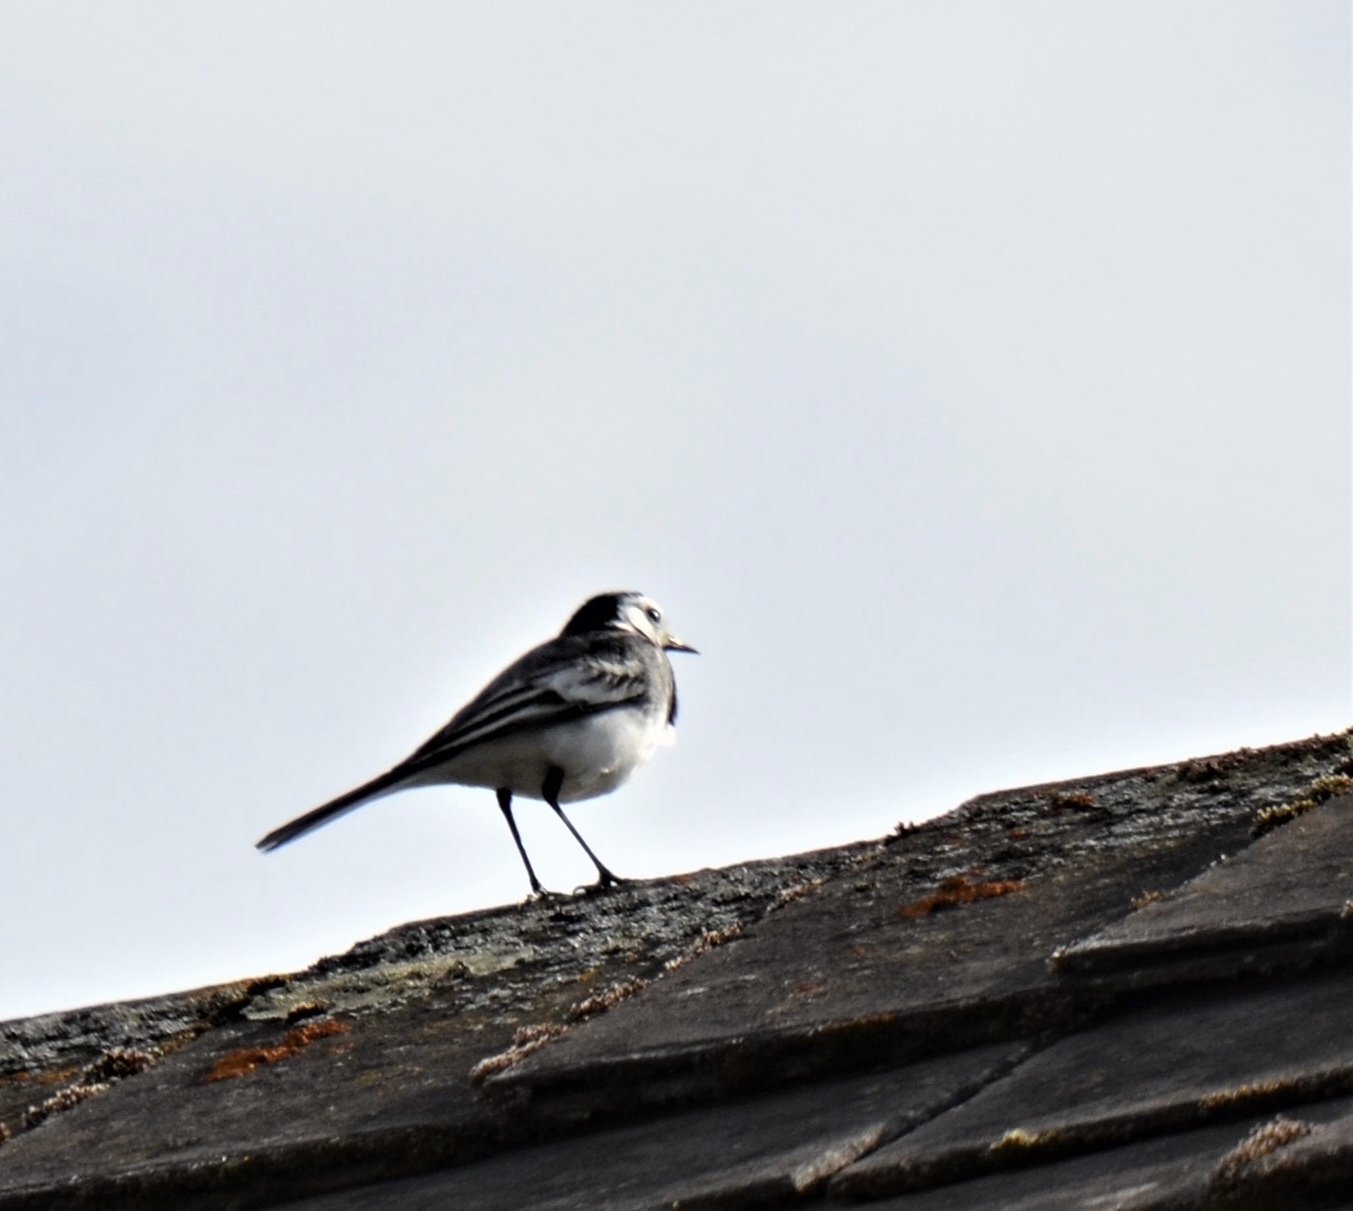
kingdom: Animalia
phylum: Chordata
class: Aves
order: Passeriformes
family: Motacillidae
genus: Motacilla
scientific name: Motacilla alba
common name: White wagtail
